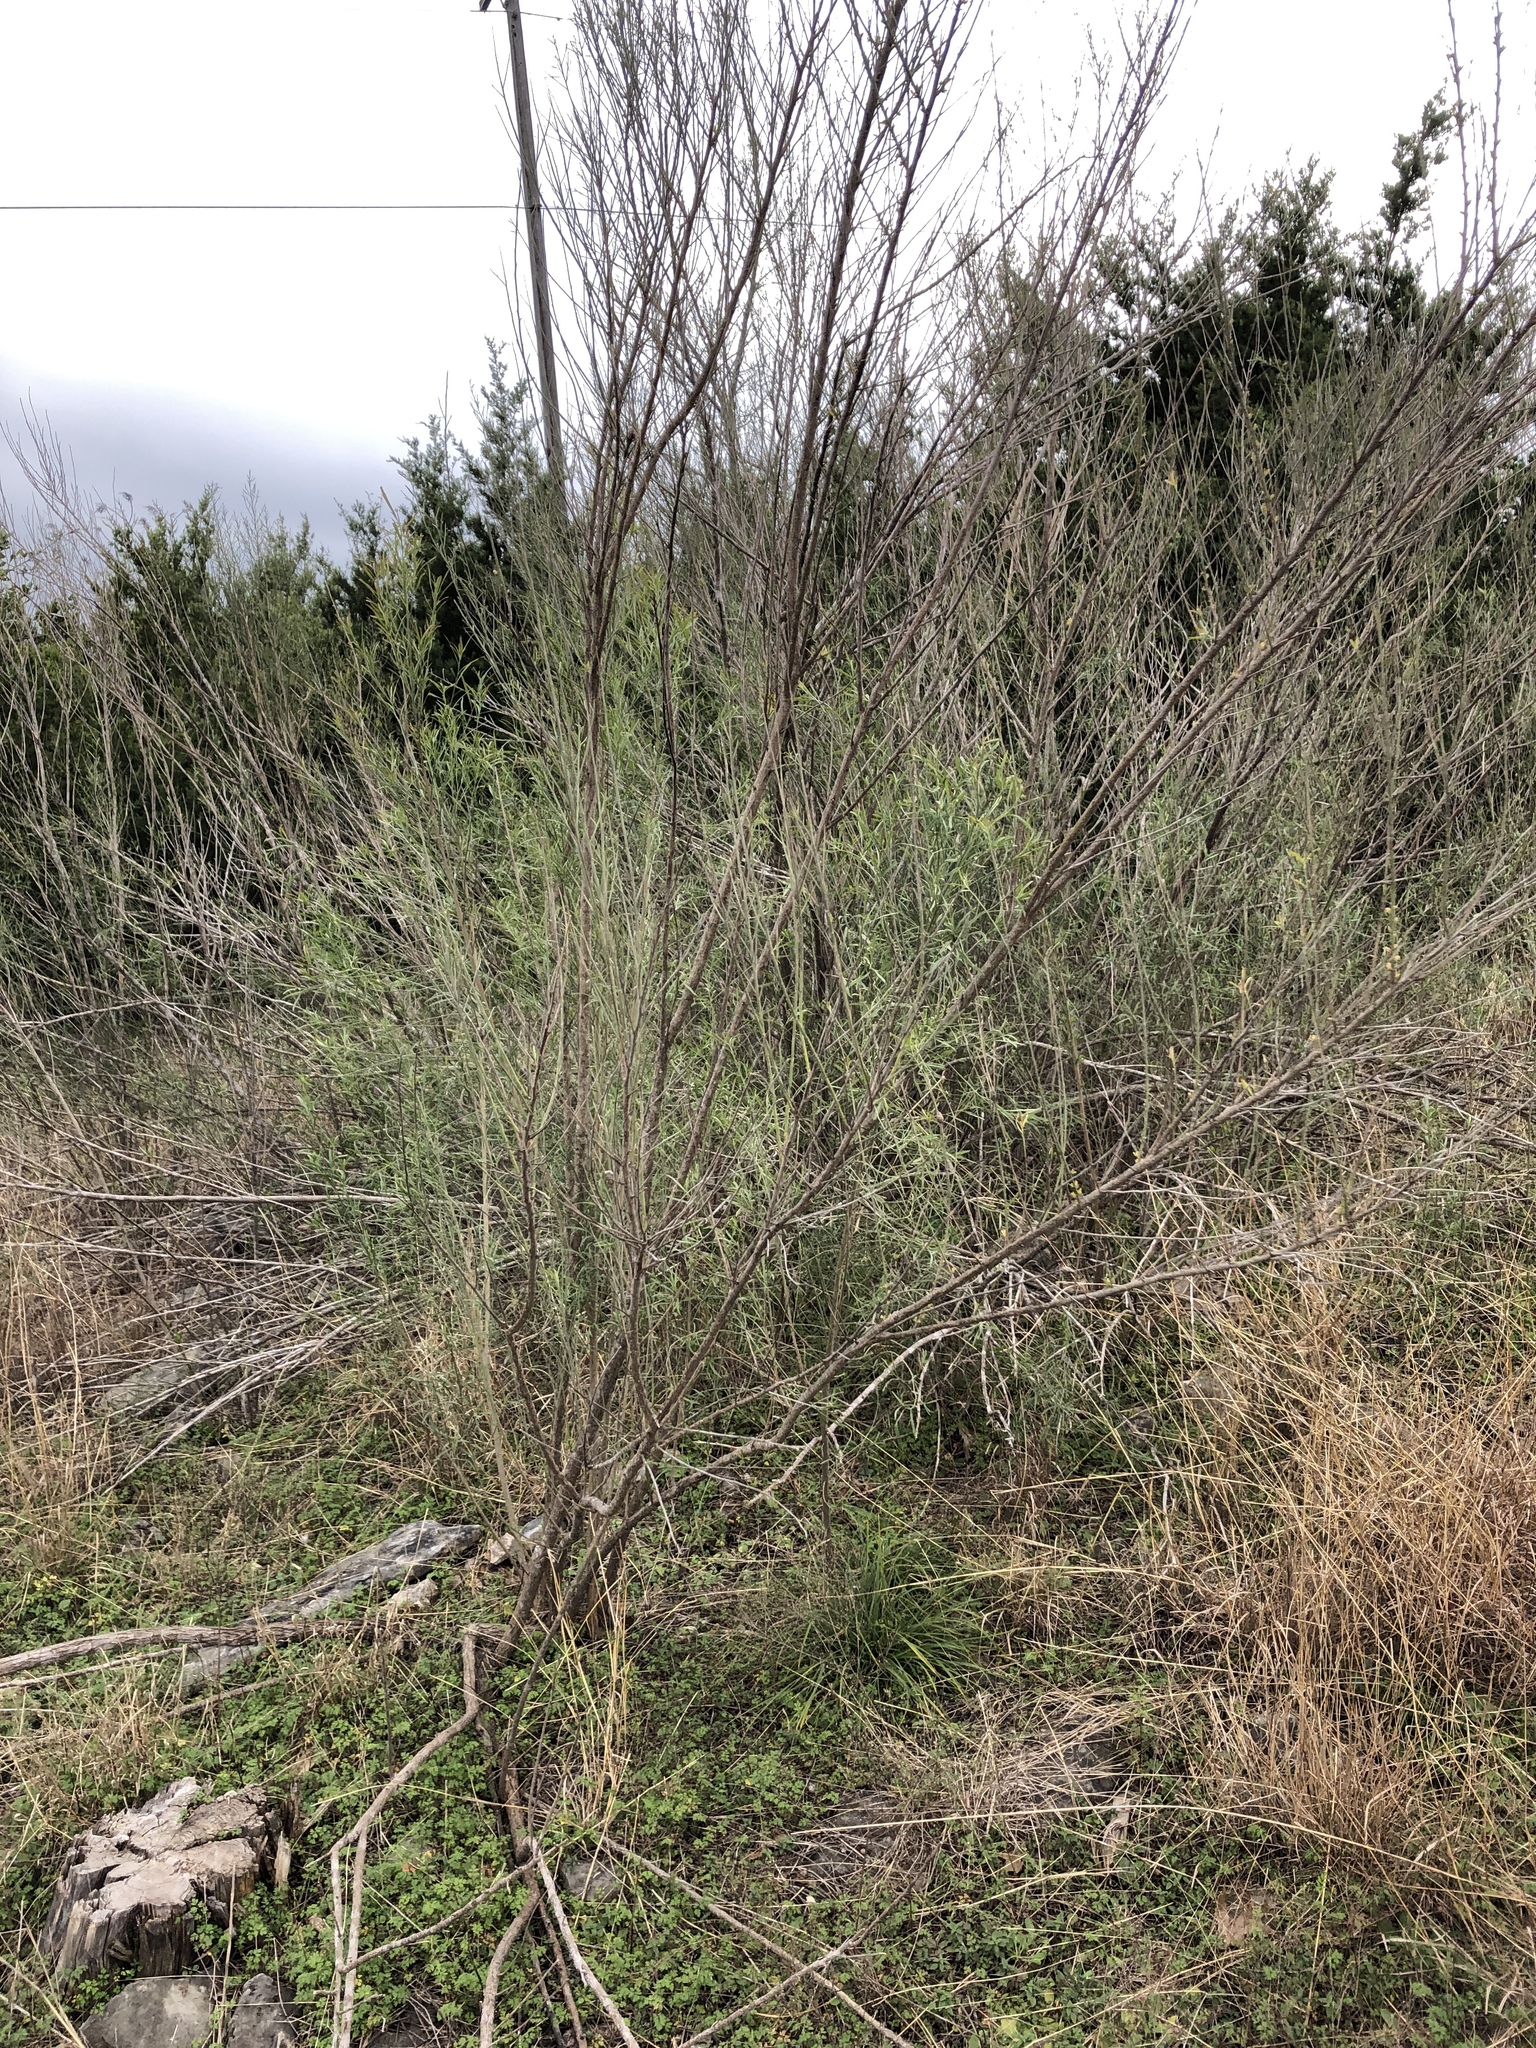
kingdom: Plantae
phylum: Tracheophyta
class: Magnoliopsida
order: Asterales
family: Asteraceae
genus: Baccharis
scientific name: Baccharis neglecta
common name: Roosevelt-weed
